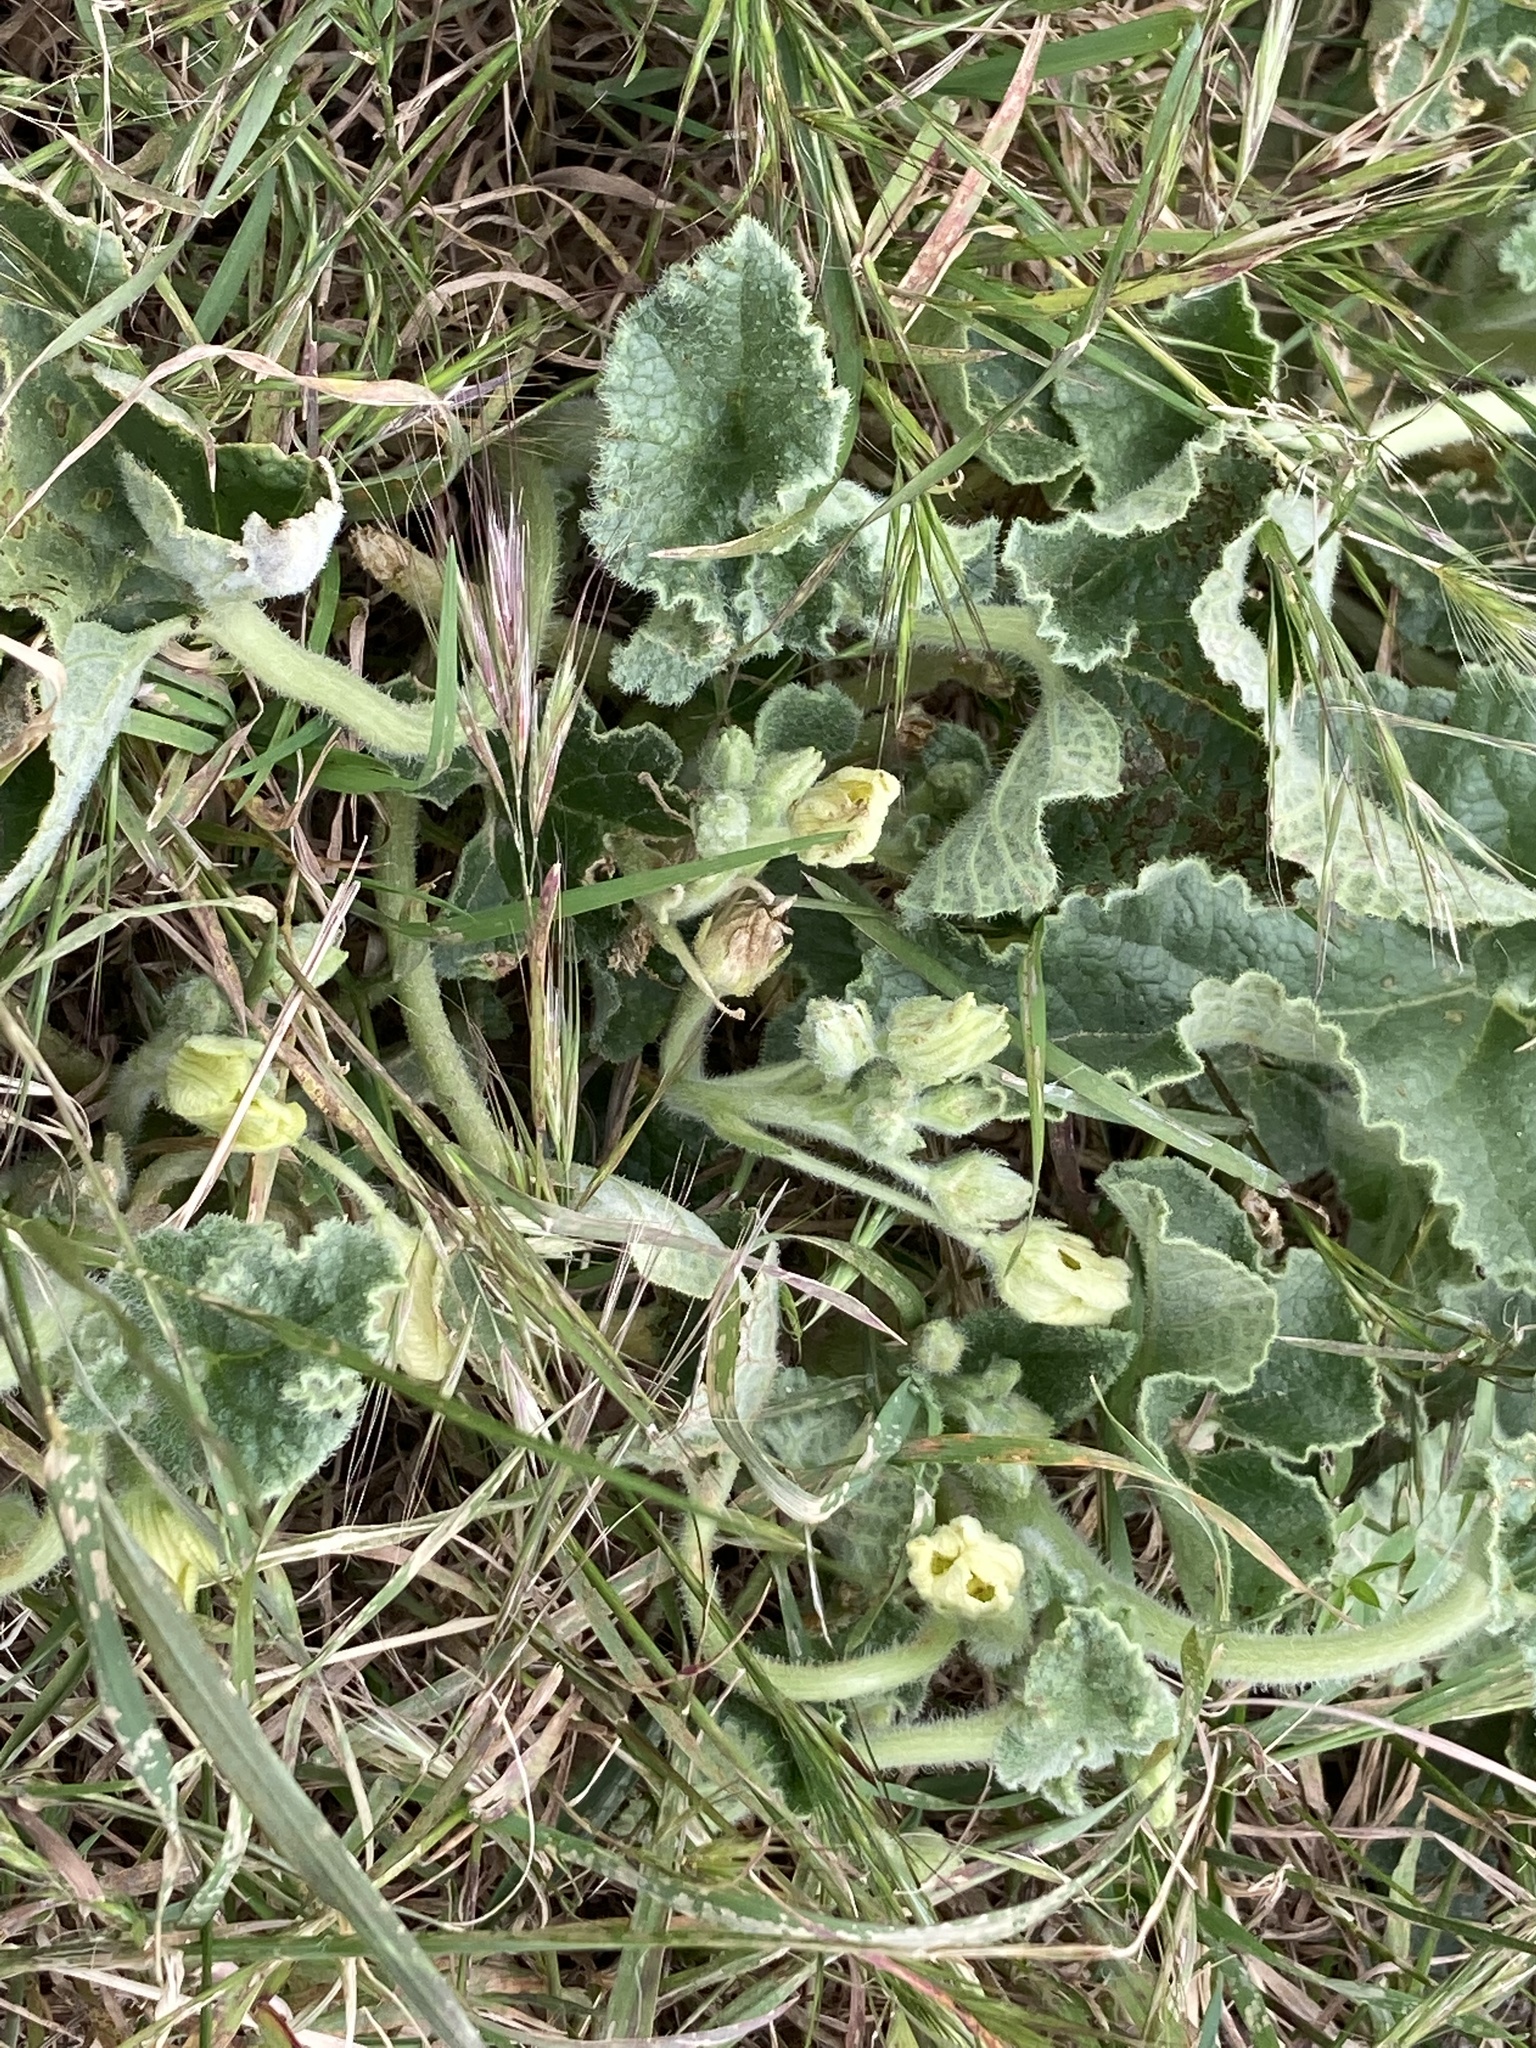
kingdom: Plantae
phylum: Tracheophyta
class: Magnoliopsida
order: Cucurbitales
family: Cucurbitaceae
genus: Ecballium
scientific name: Ecballium elaterium
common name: Squirting cucumber
